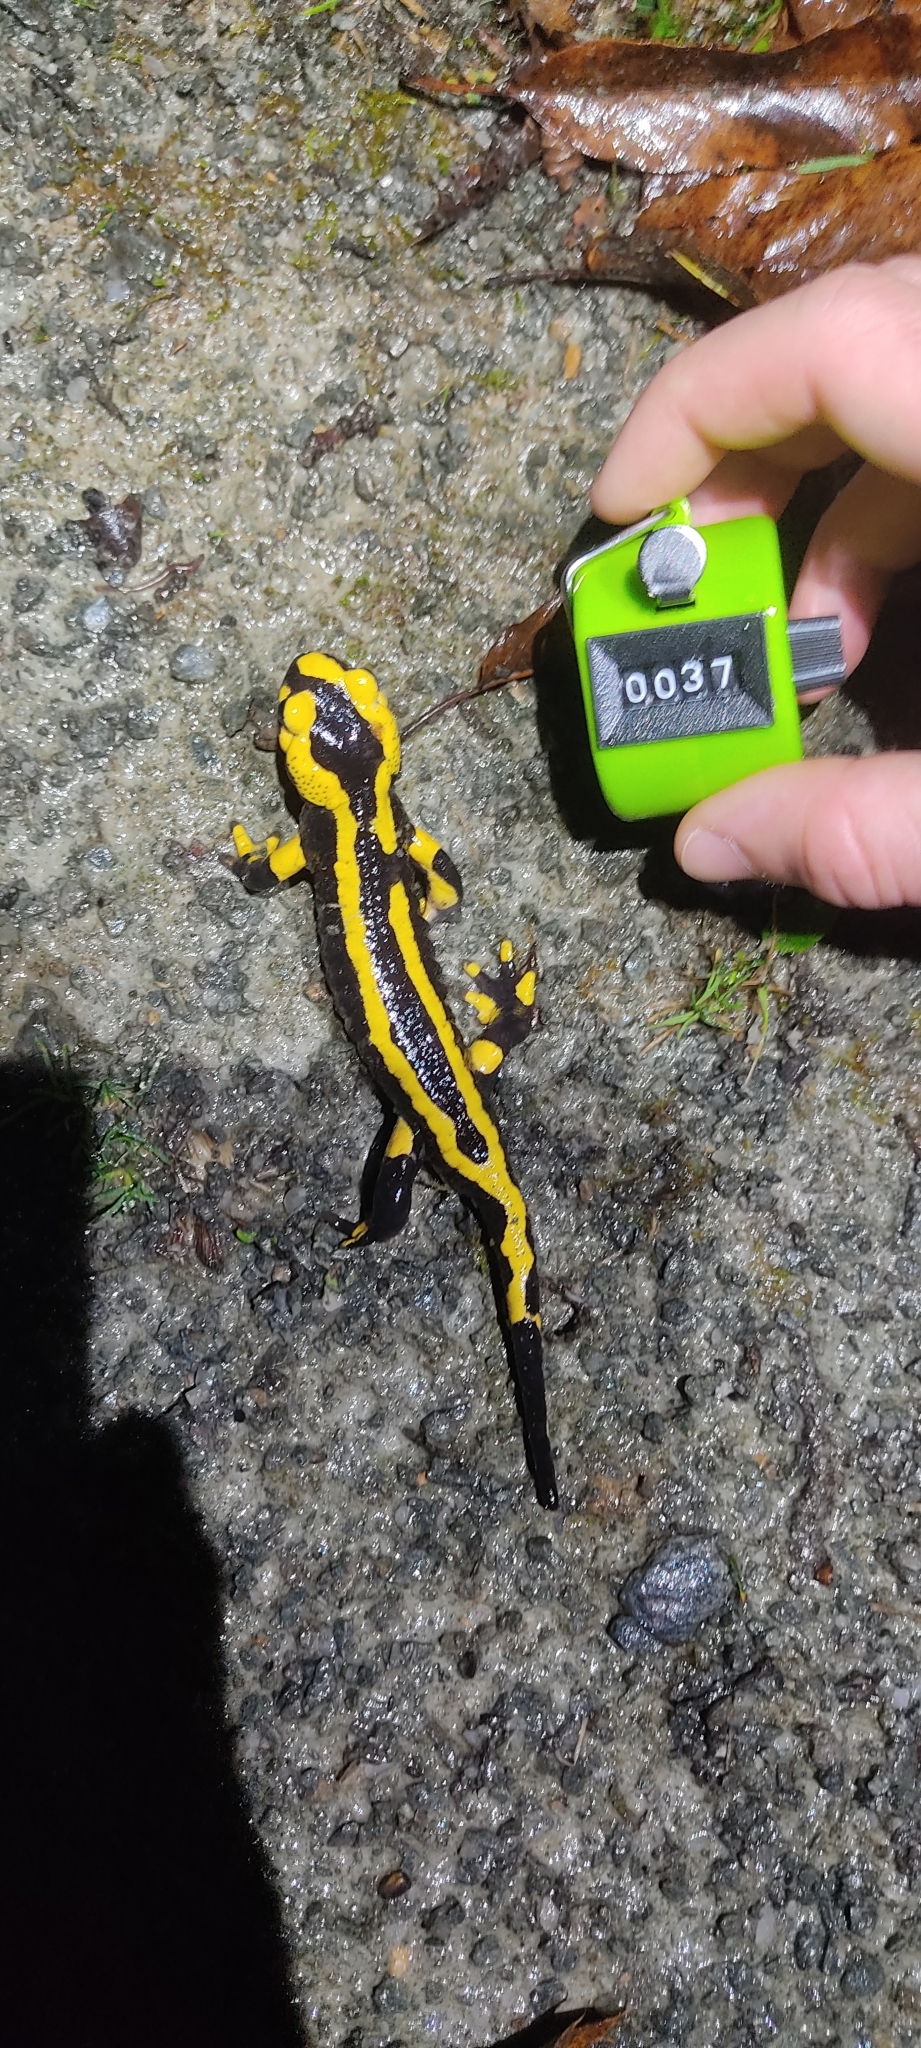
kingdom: Animalia
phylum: Chordata
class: Amphibia
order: Caudata
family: Salamandridae
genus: Salamandra
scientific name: Salamandra salamandra
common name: Fire salamander
